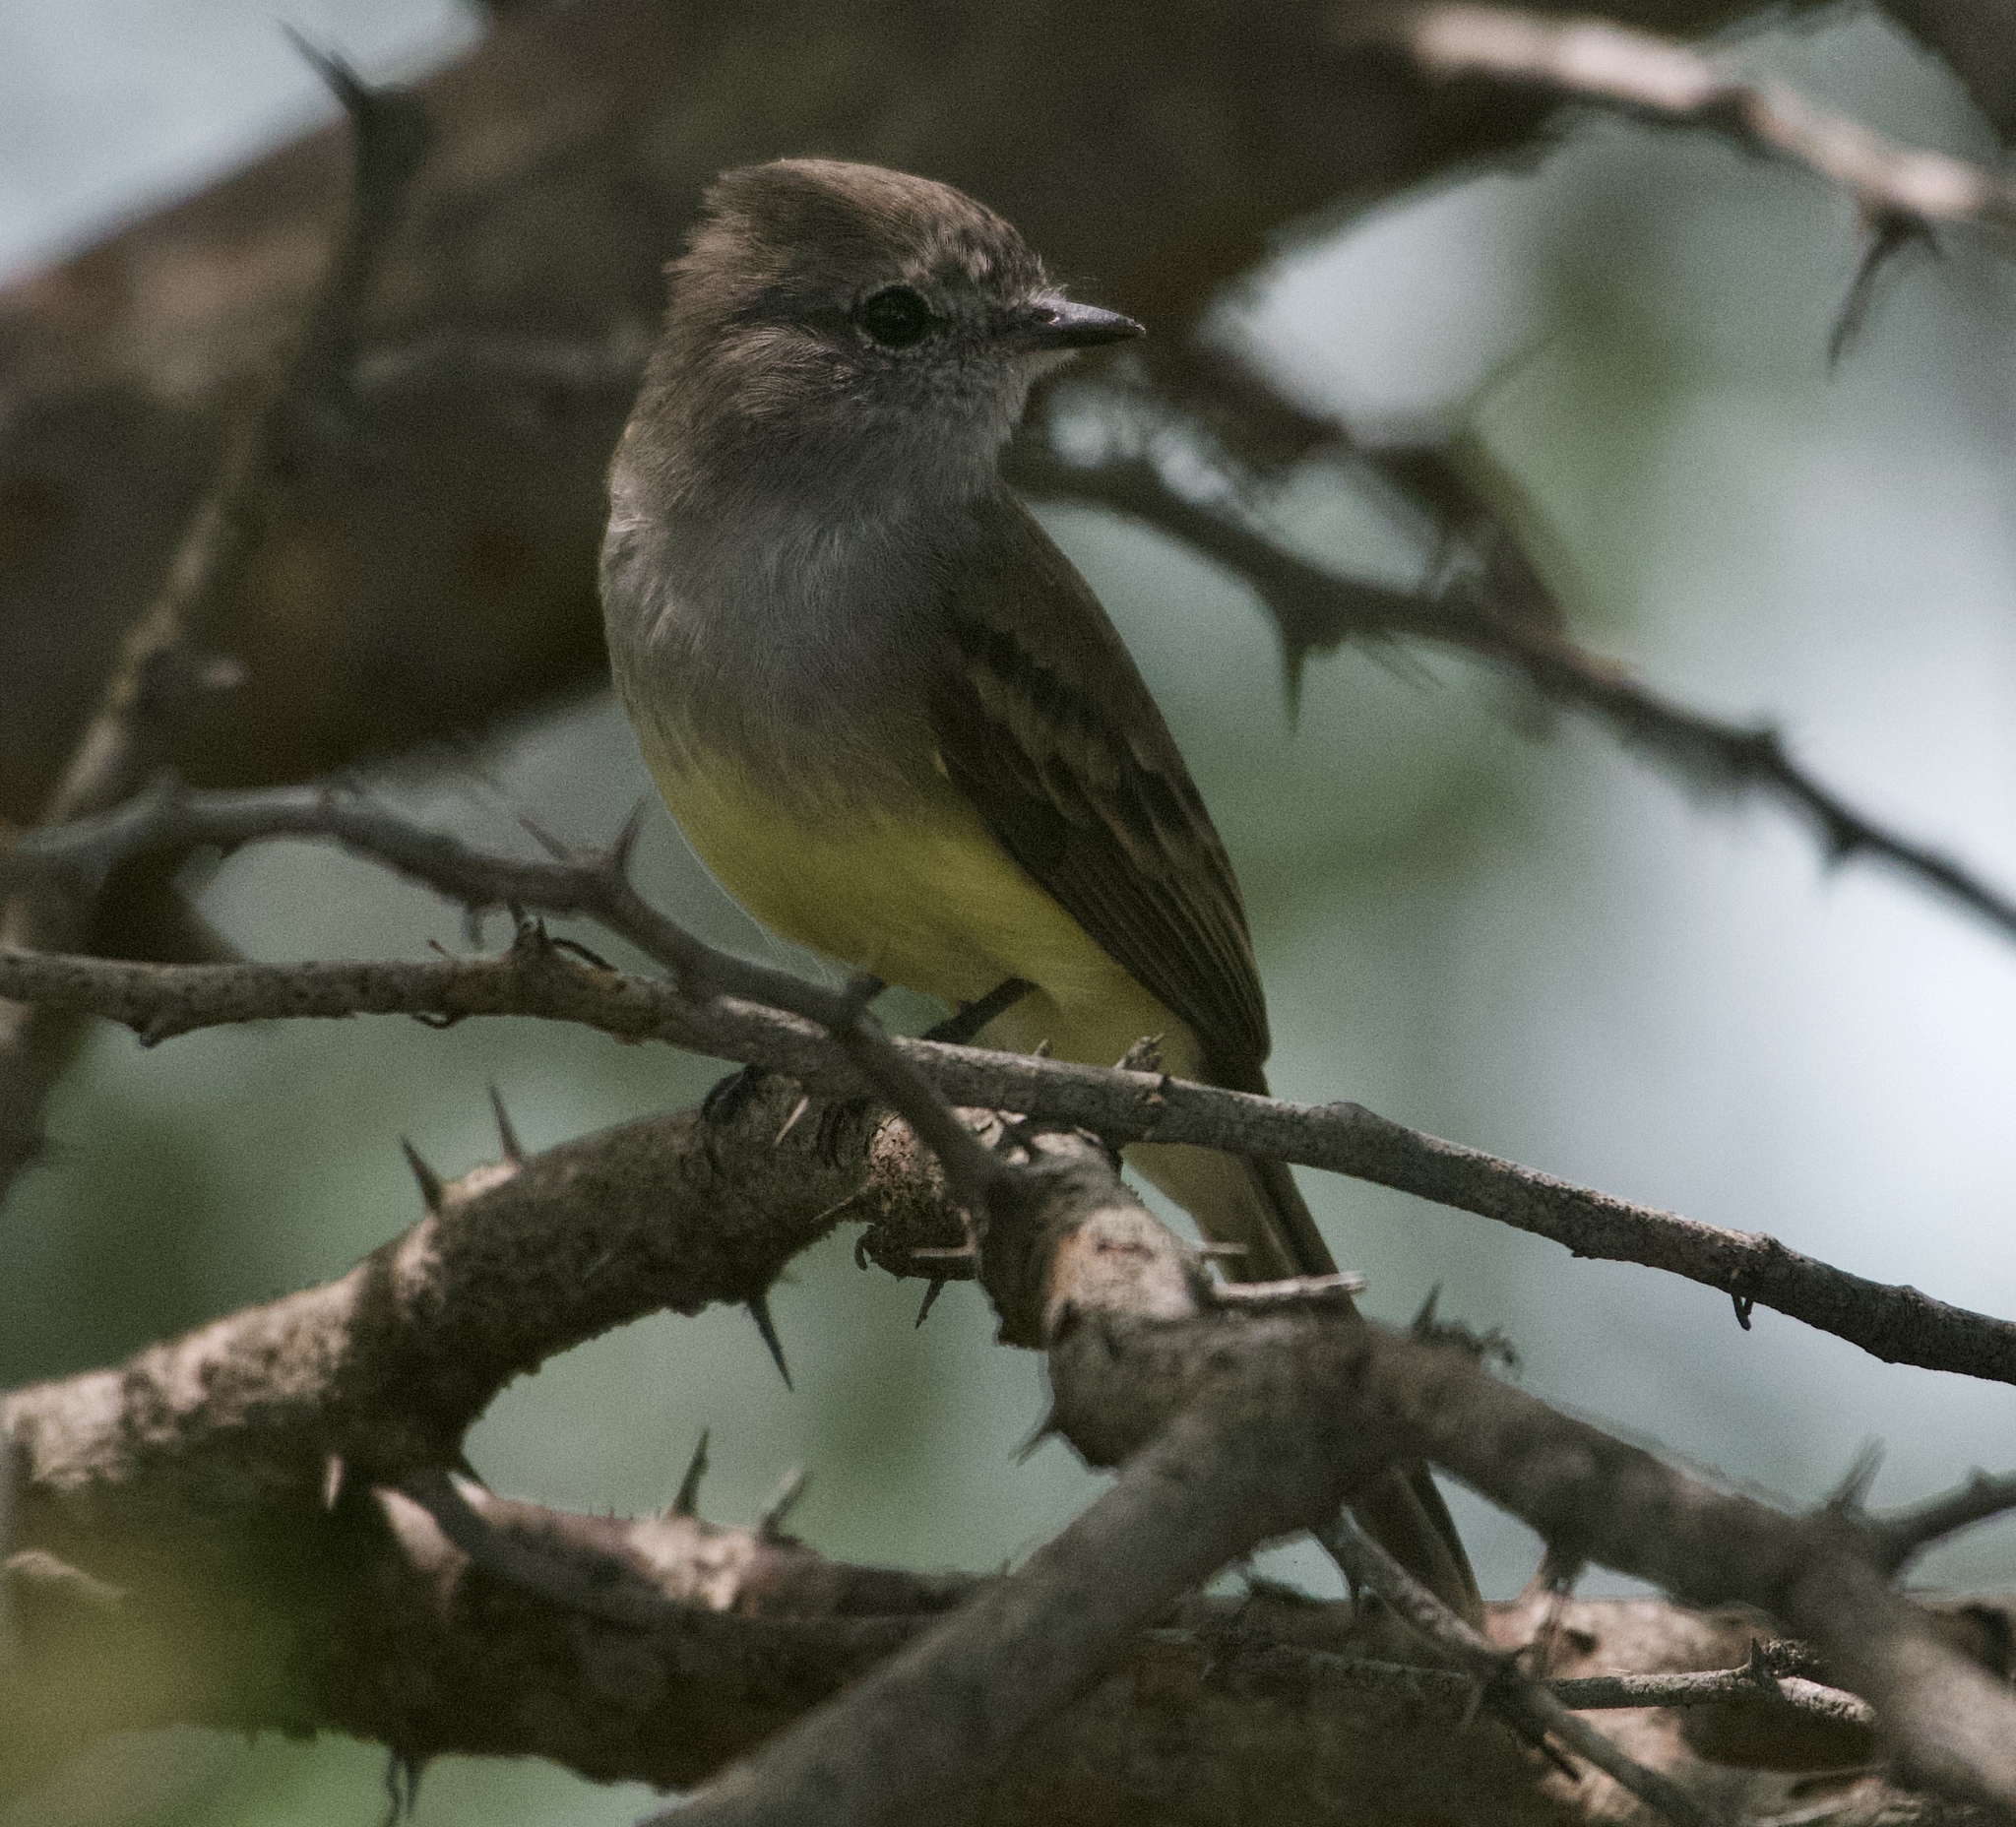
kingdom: Animalia
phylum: Chordata
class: Aves
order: Passeriformes
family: Tyrannidae
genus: Sublegatus
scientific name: Sublegatus arenarum
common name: Northern scrub-flycatcher
